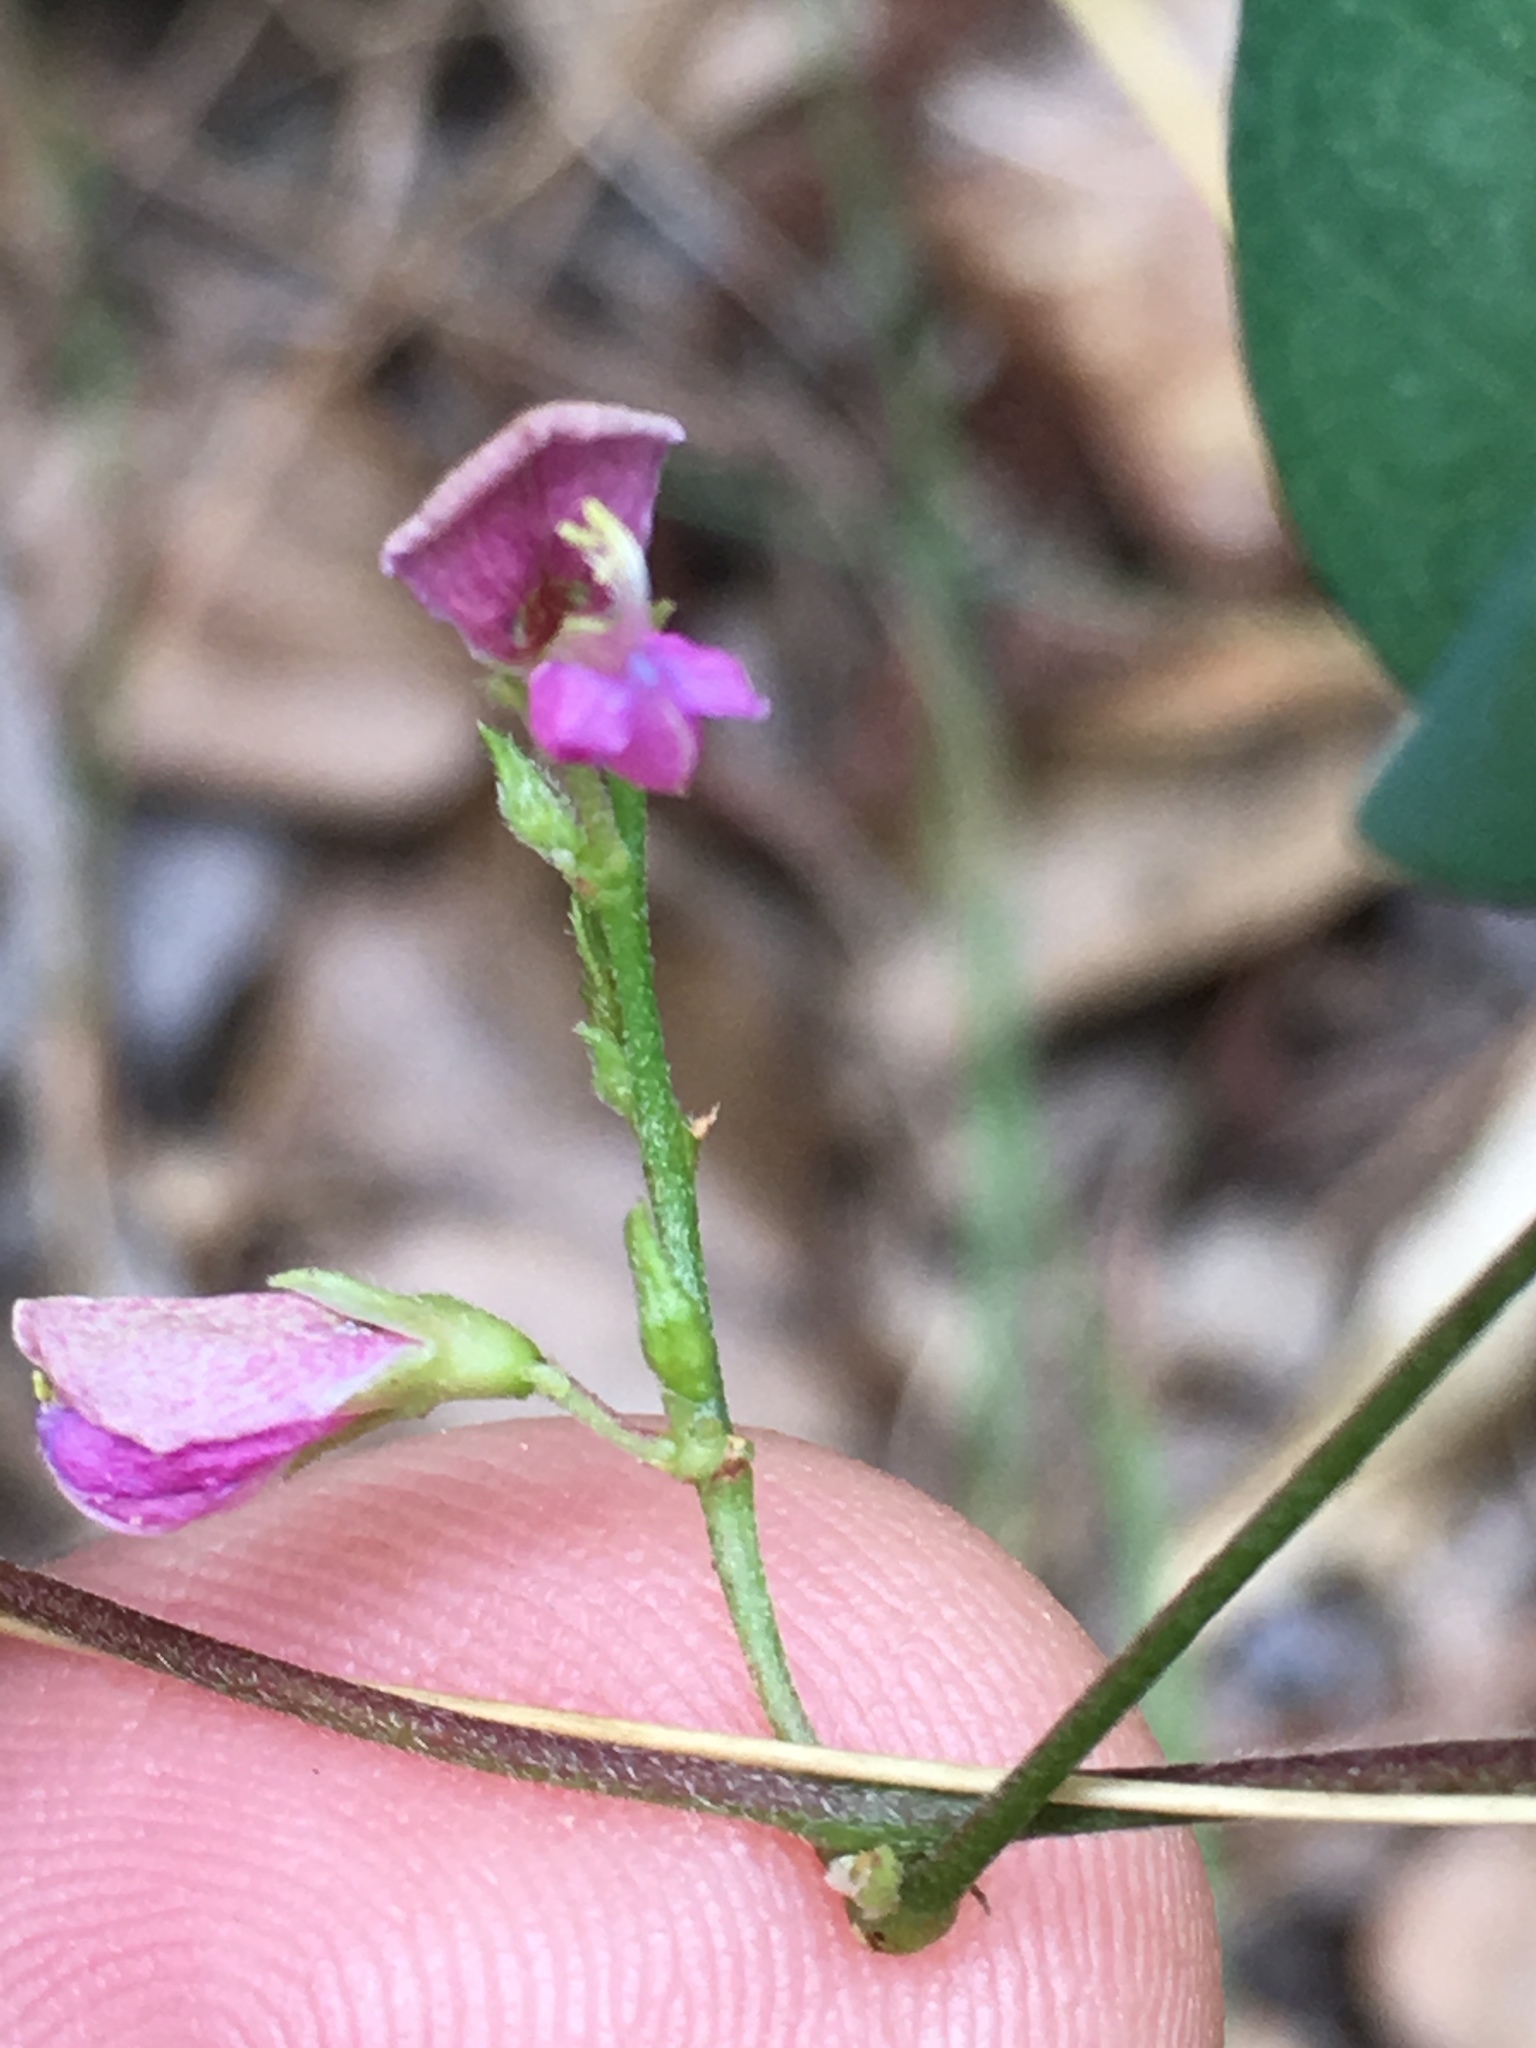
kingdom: Plantae
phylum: Tracheophyta
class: Magnoliopsida
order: Fabales
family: Fabaceae
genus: Galactia
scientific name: Galactia regularis
